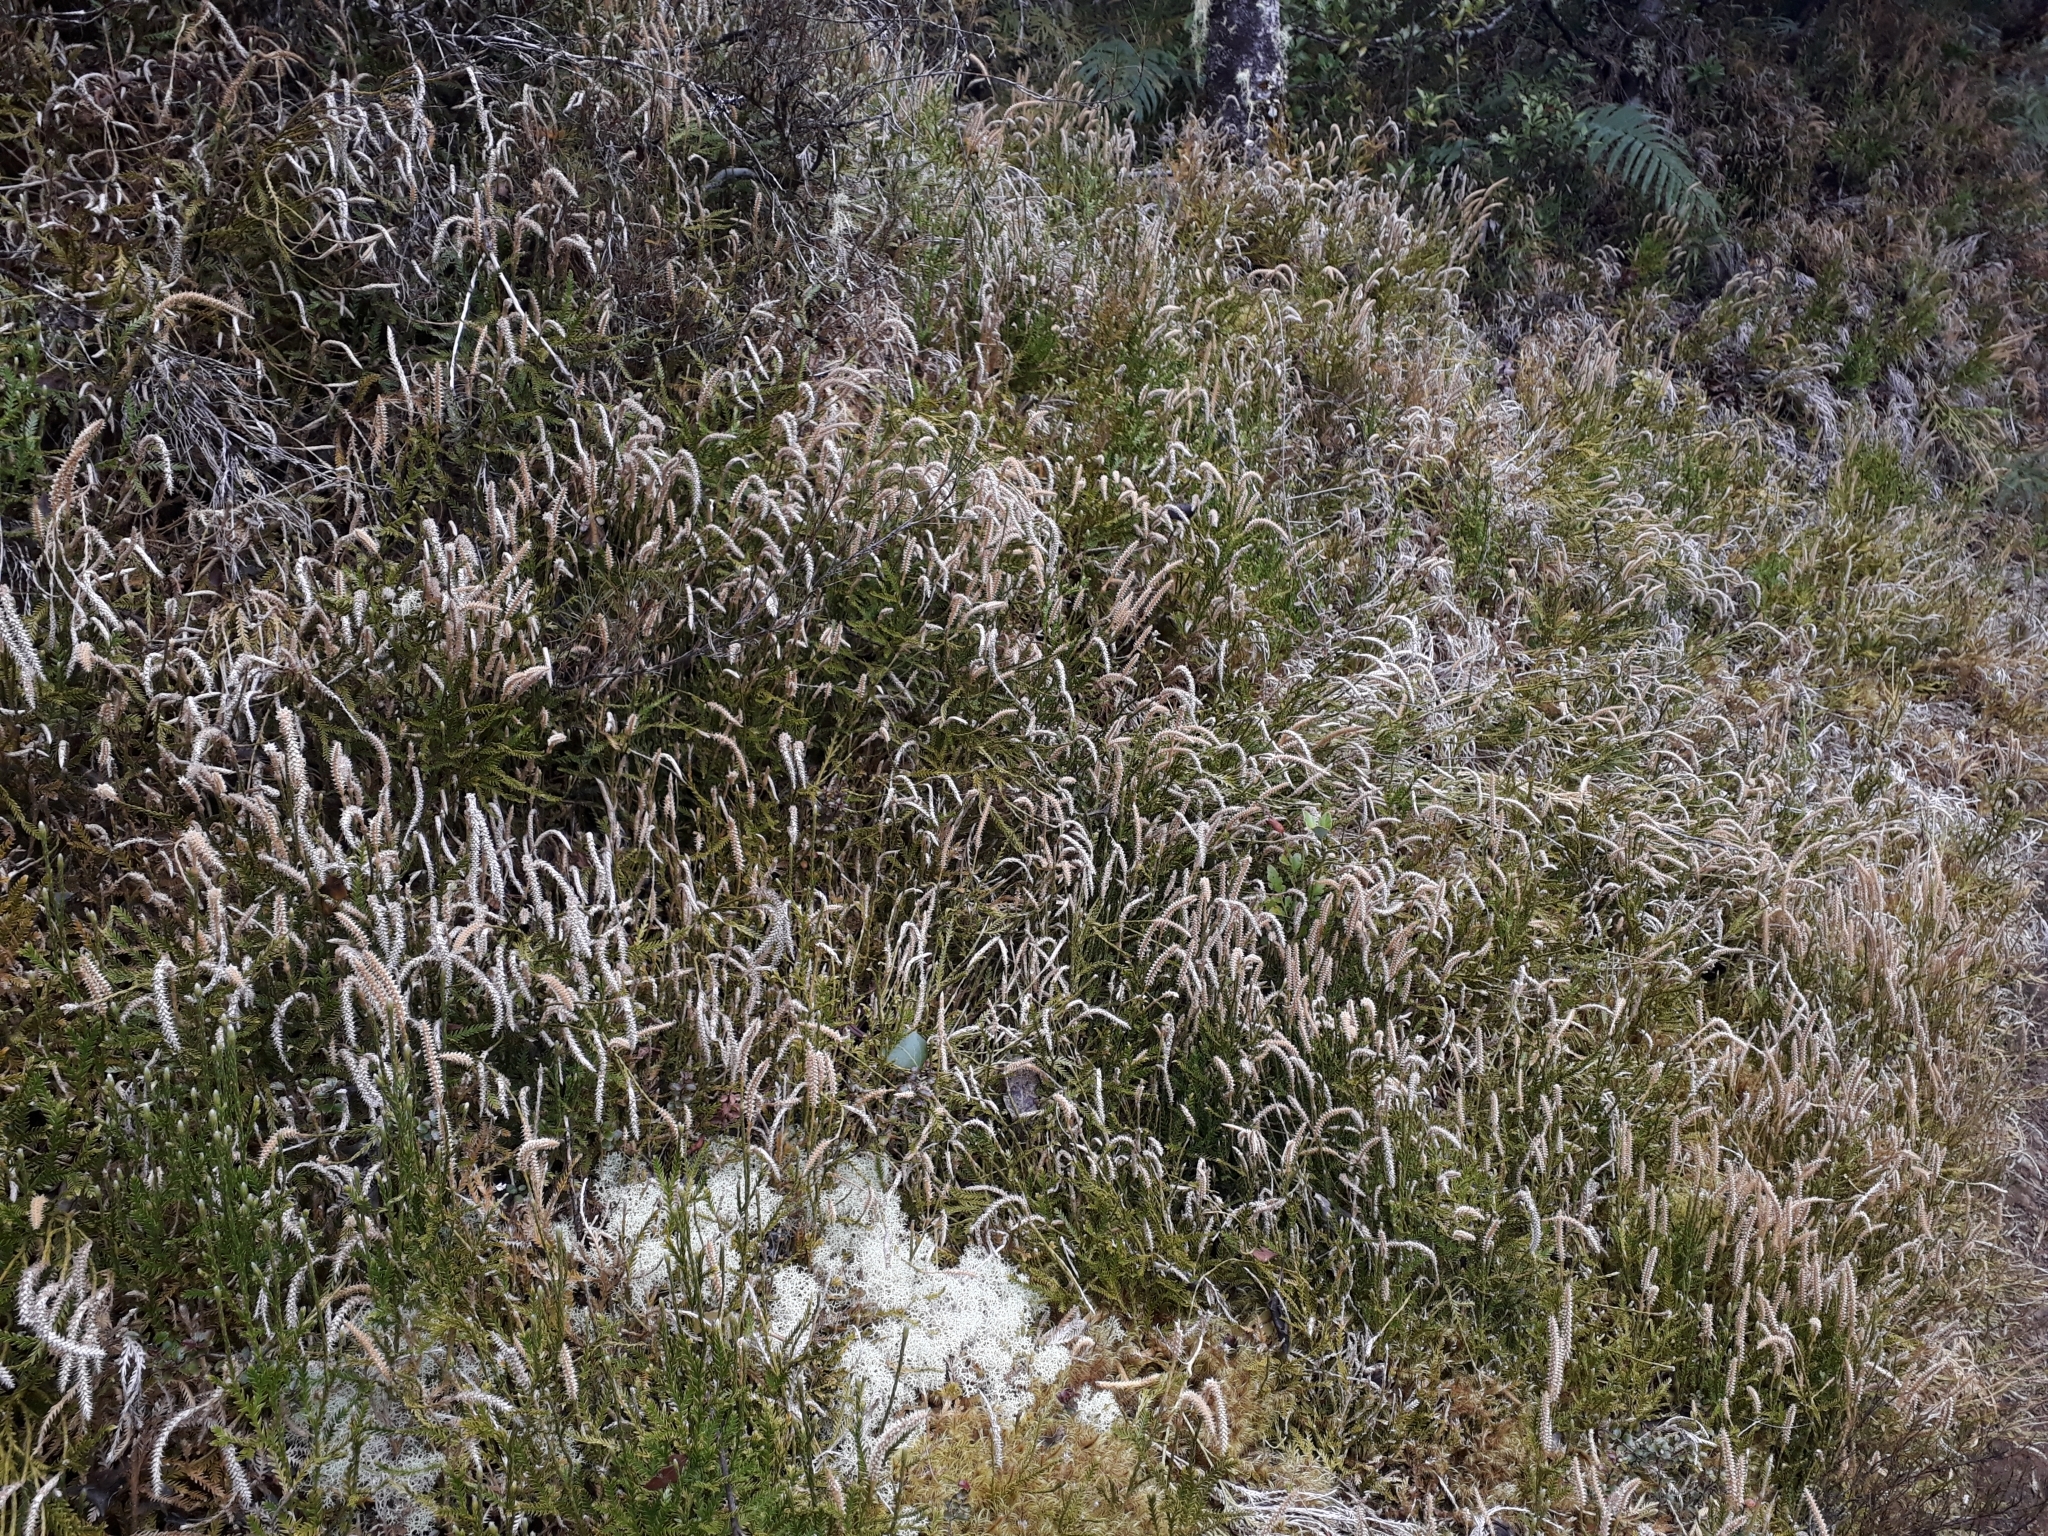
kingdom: Plantae
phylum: Tracheophyta
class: Lycopodiopsida
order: Lycopodiales
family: Lycopodiaceae
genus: Diphasium
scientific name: Diphasium scariosum
